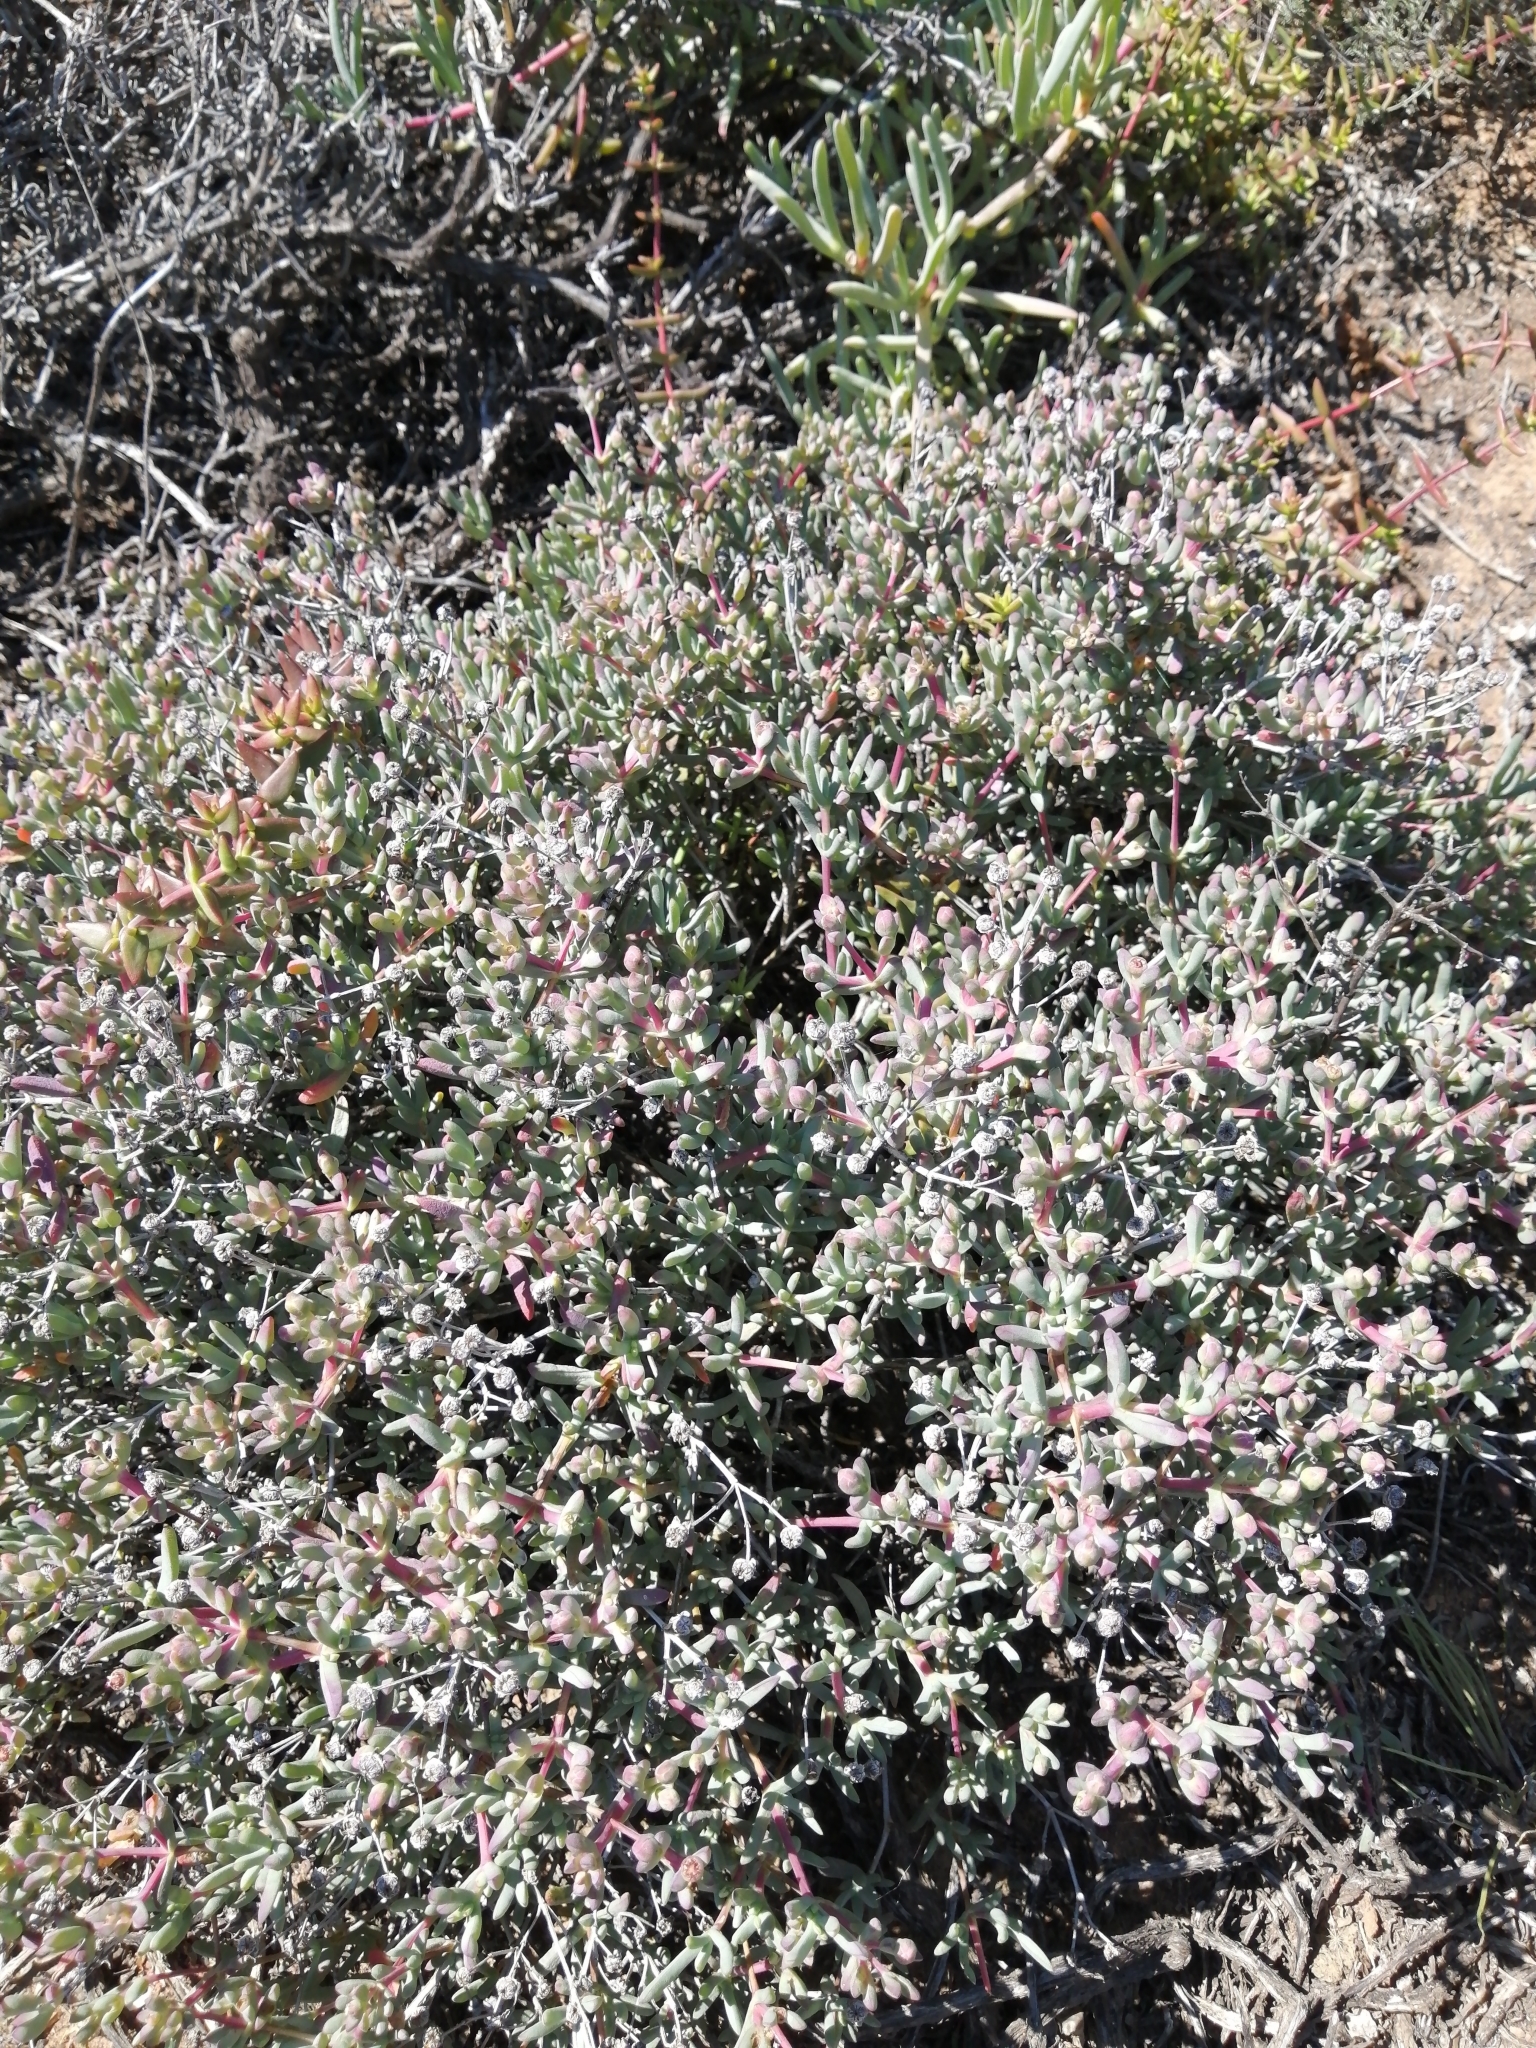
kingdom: Plantae
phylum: Tracheophyta
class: Magnoliopsida
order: Caryophyllales
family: Aizoaceae
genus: Leipoldtia
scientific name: Leipoldtia schultzei
